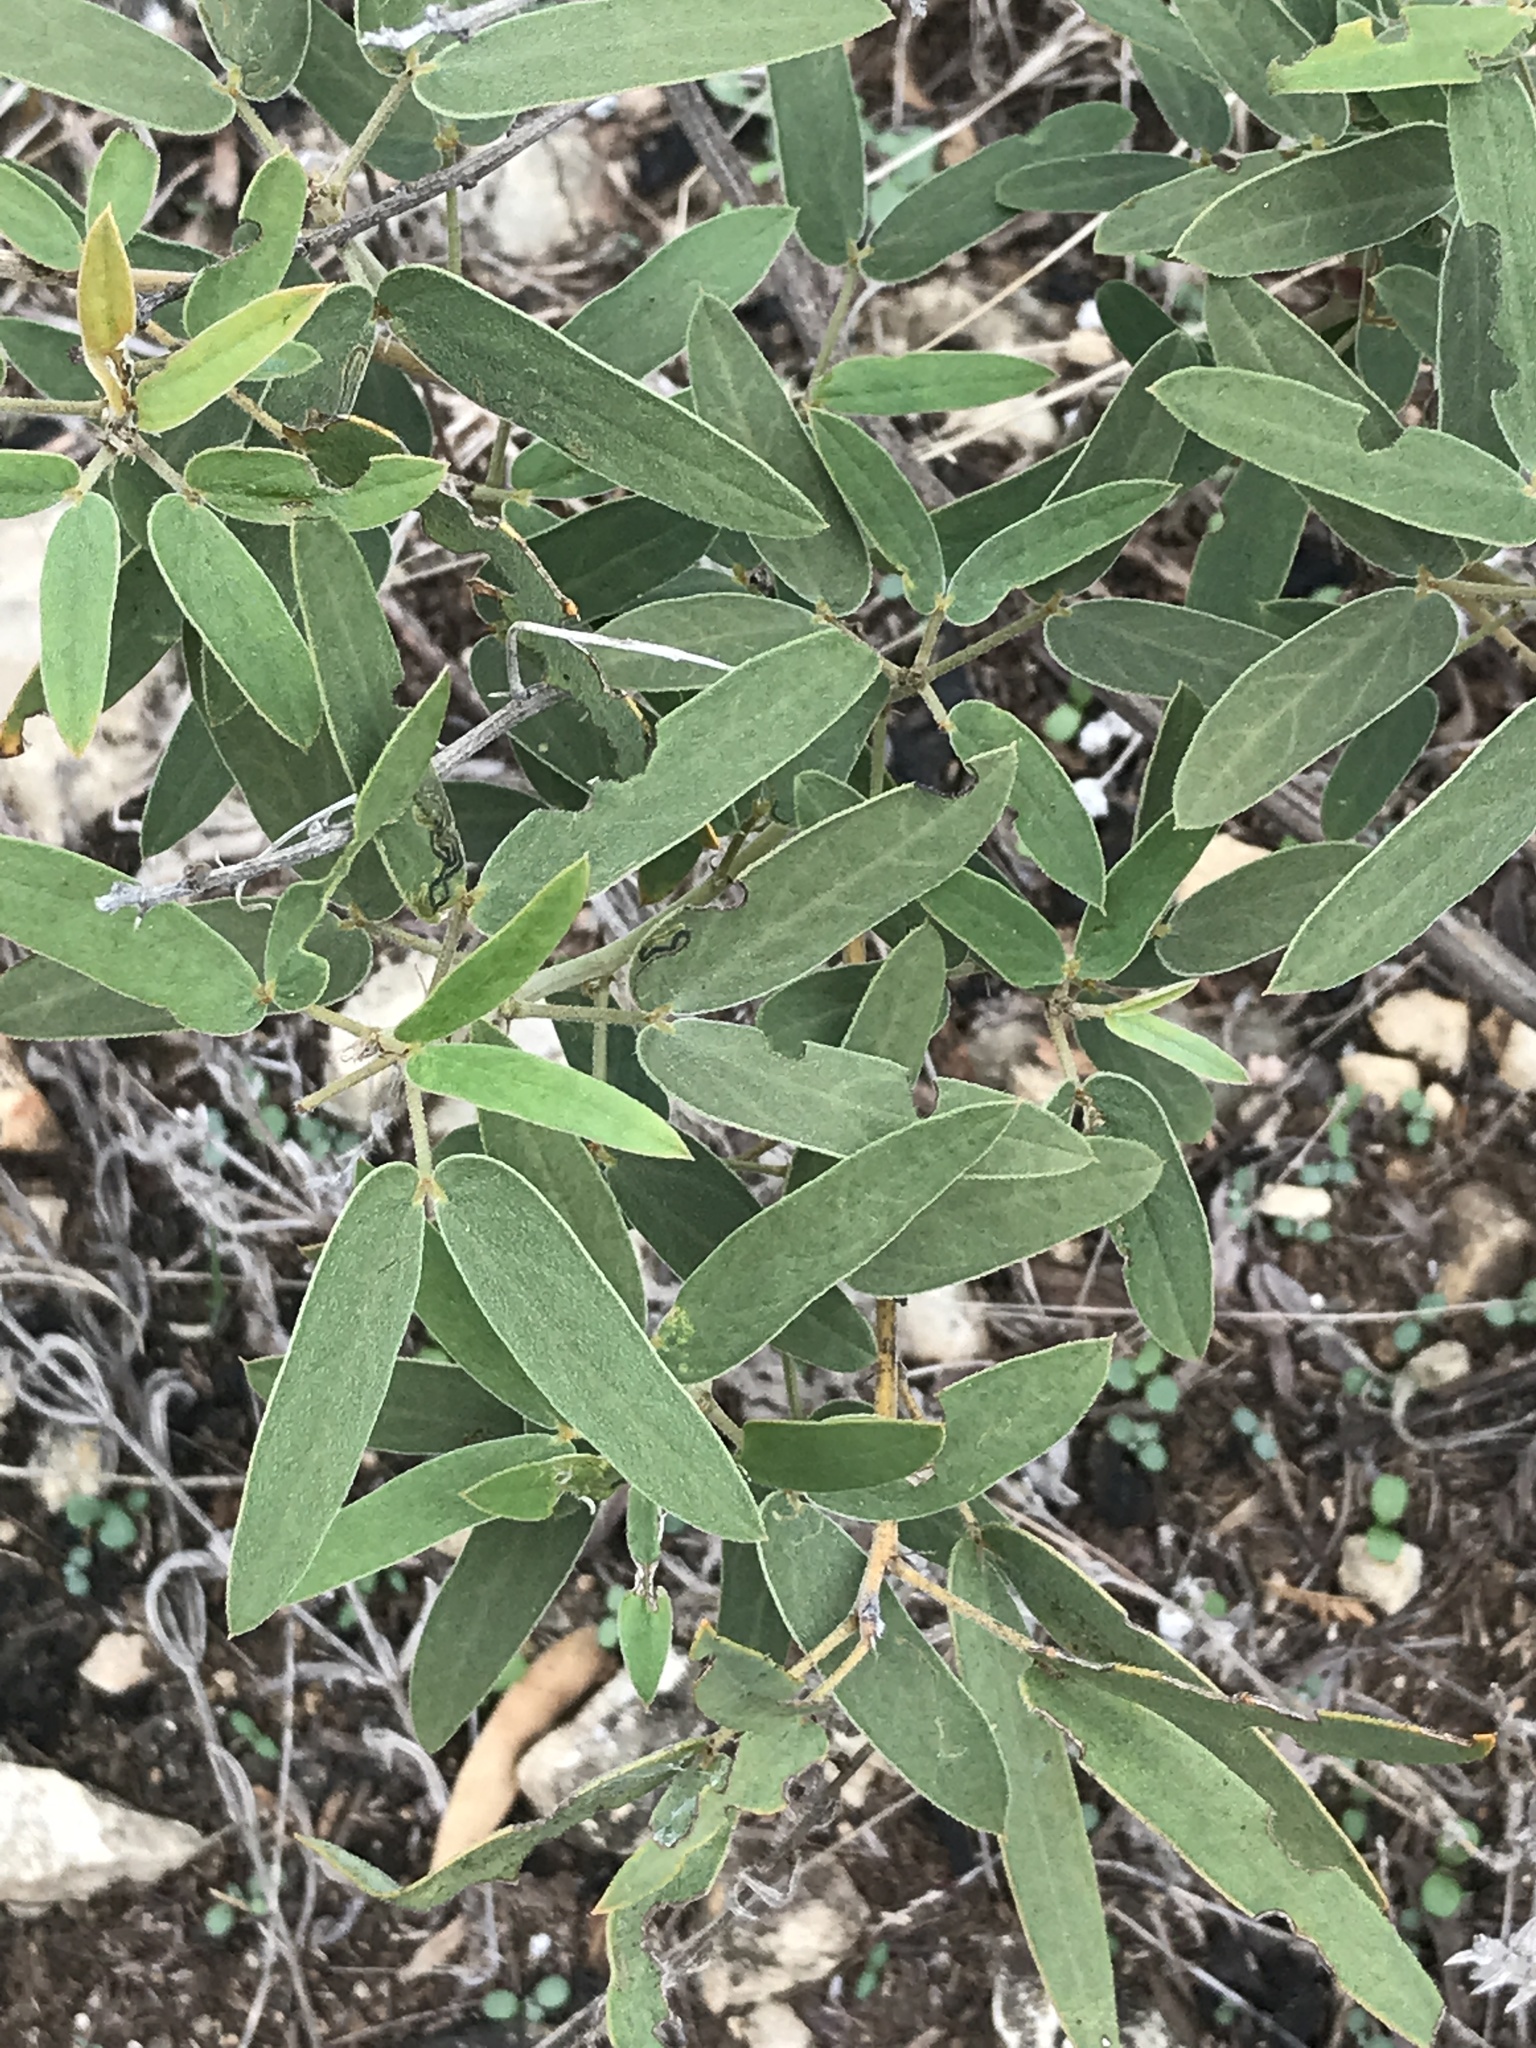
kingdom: Plantae
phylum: Tracheophyta
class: Magnoliopsida
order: Fabales
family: Fabaceae
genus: Senna
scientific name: Senna roemeriana
